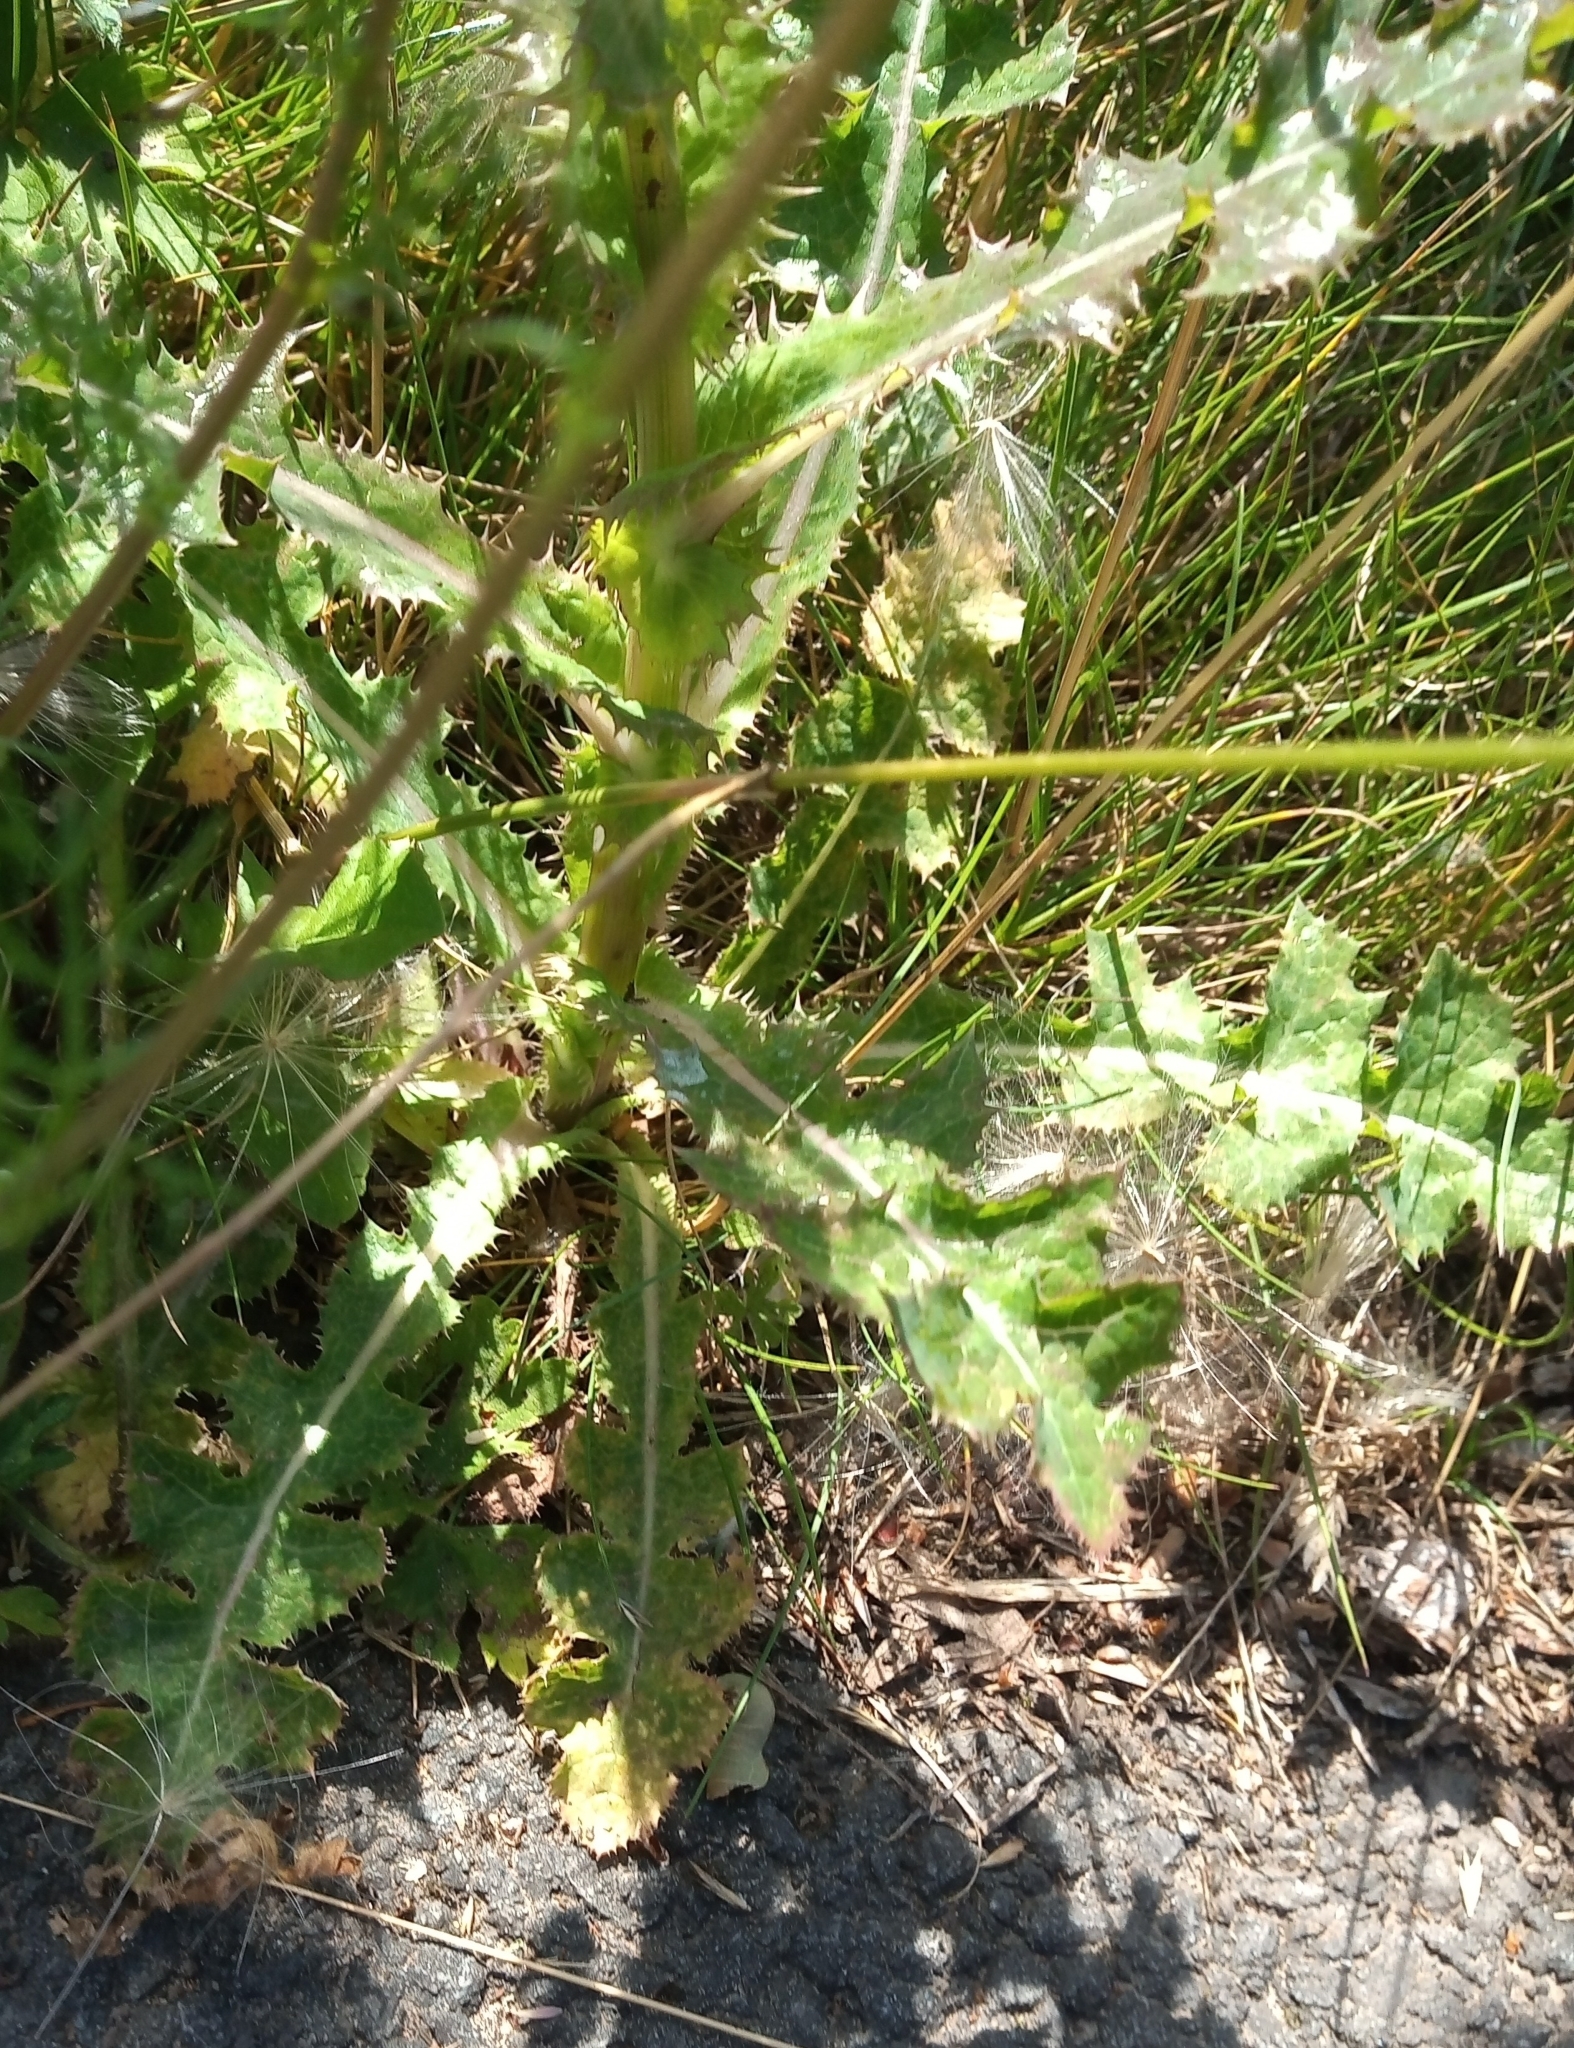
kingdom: Plantae
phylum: Tracheophyta
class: Magnoliopsida
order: Asterales
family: Asteraceae
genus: Sonchus
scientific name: Sonchus asper
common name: Prickly sow-thistle
